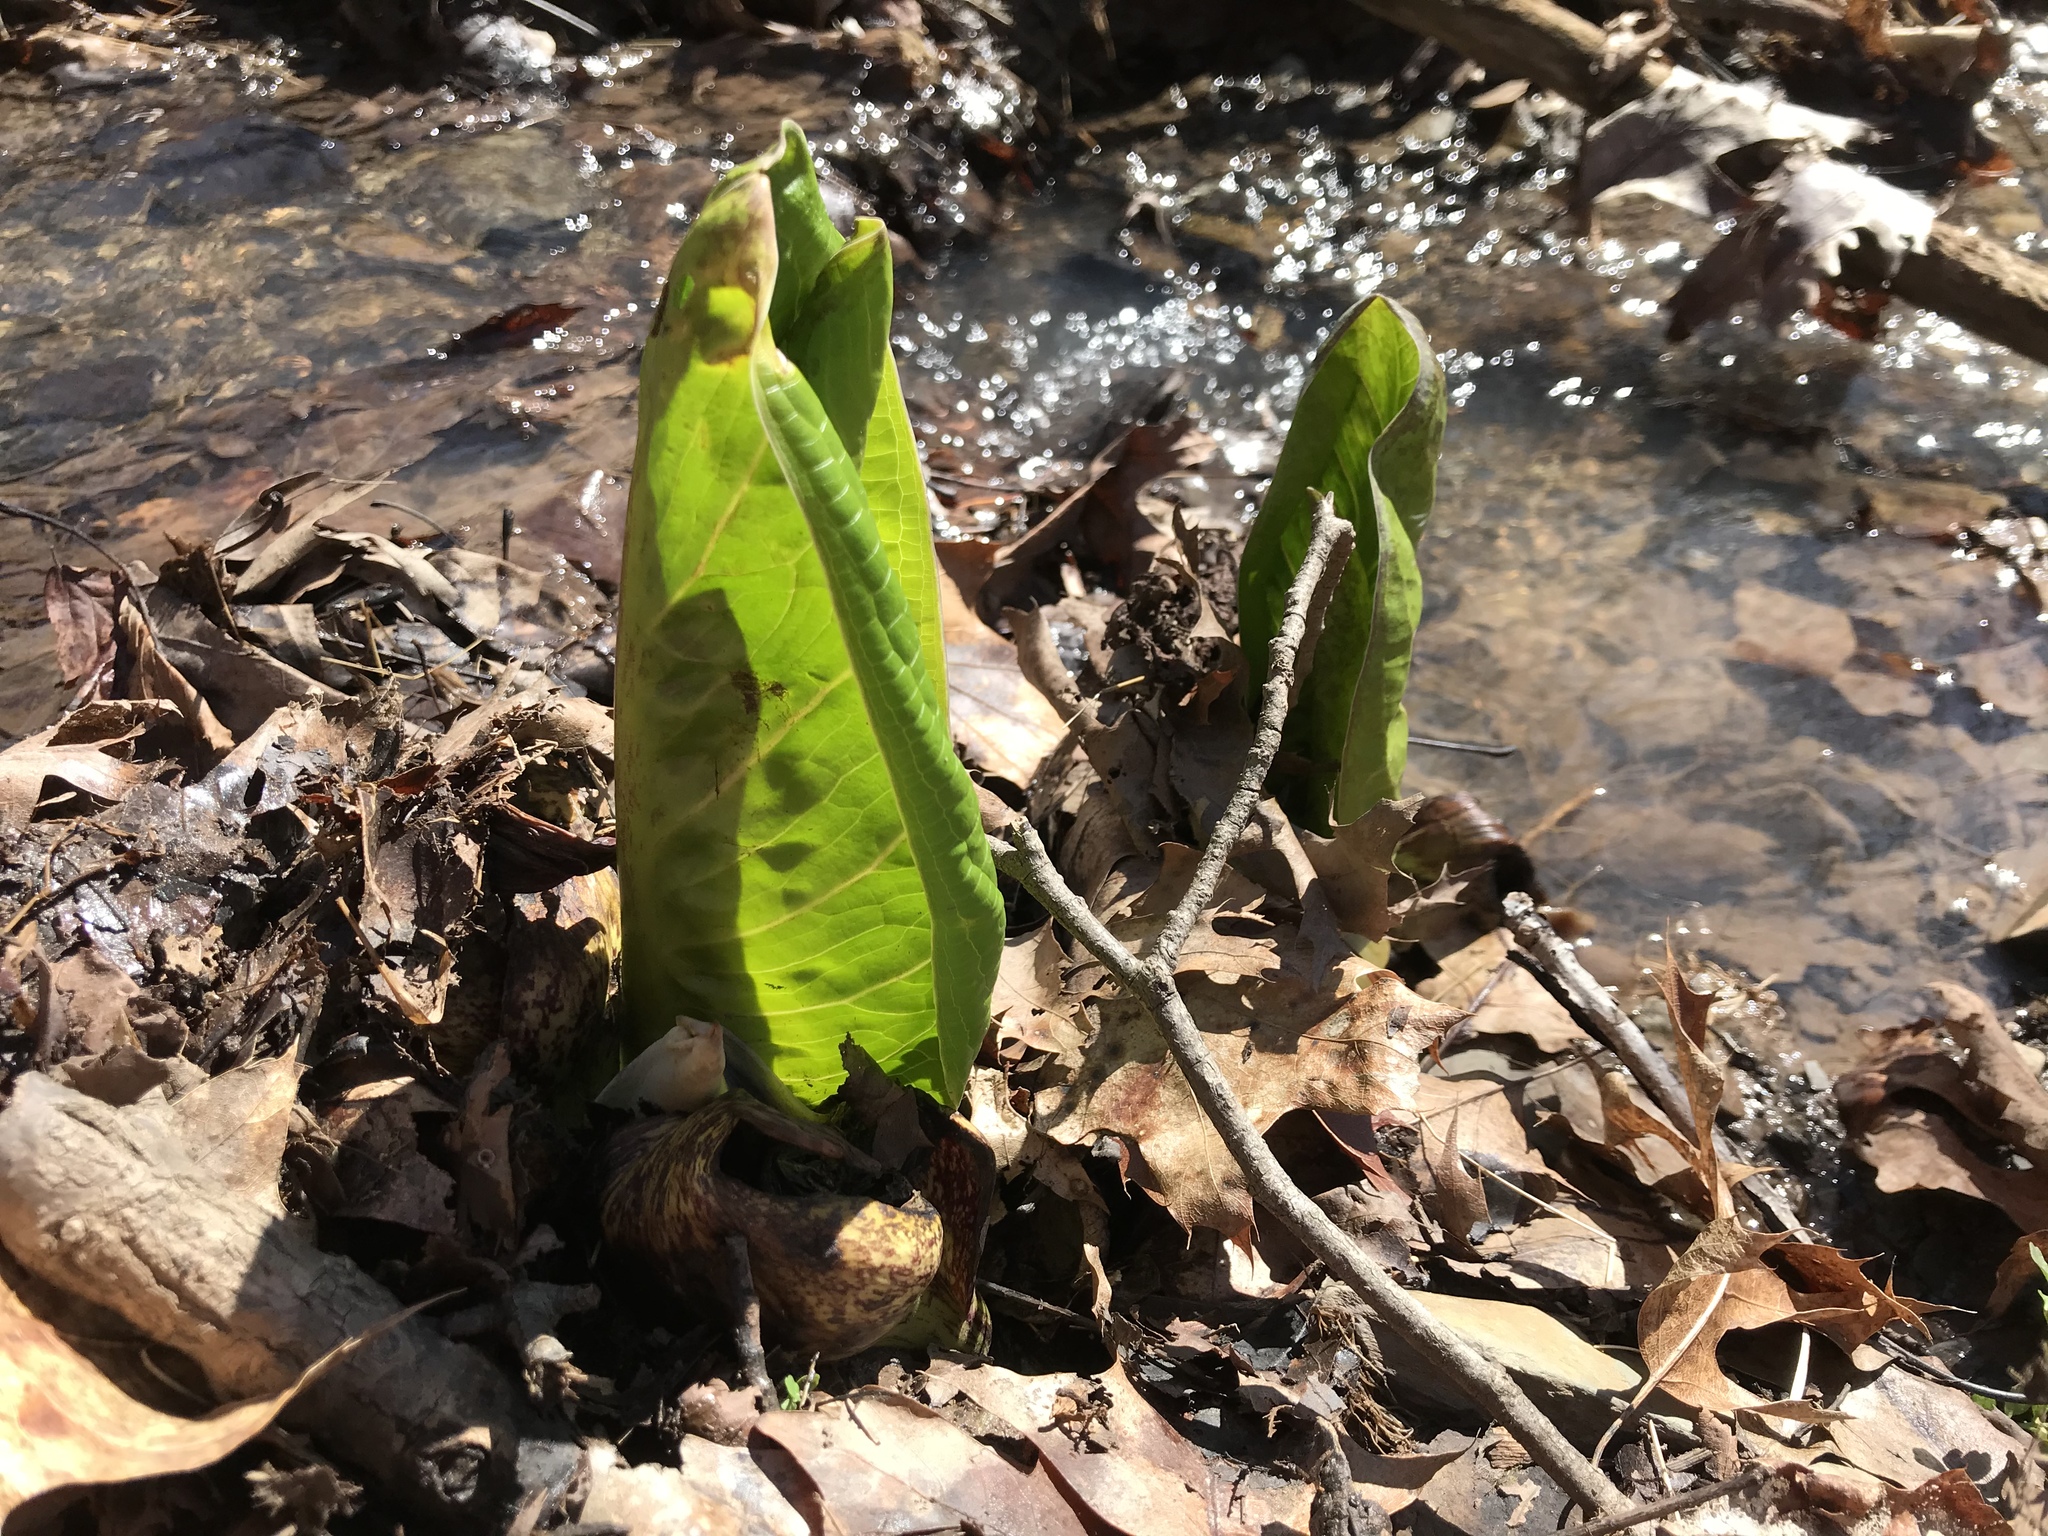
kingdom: Plantae
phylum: Tracheophyta
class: Liliopsida
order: Alismatales
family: Araceae
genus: Symplocarpus
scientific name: Symplocarpus foetidus
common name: Eastern skunk cabbage
